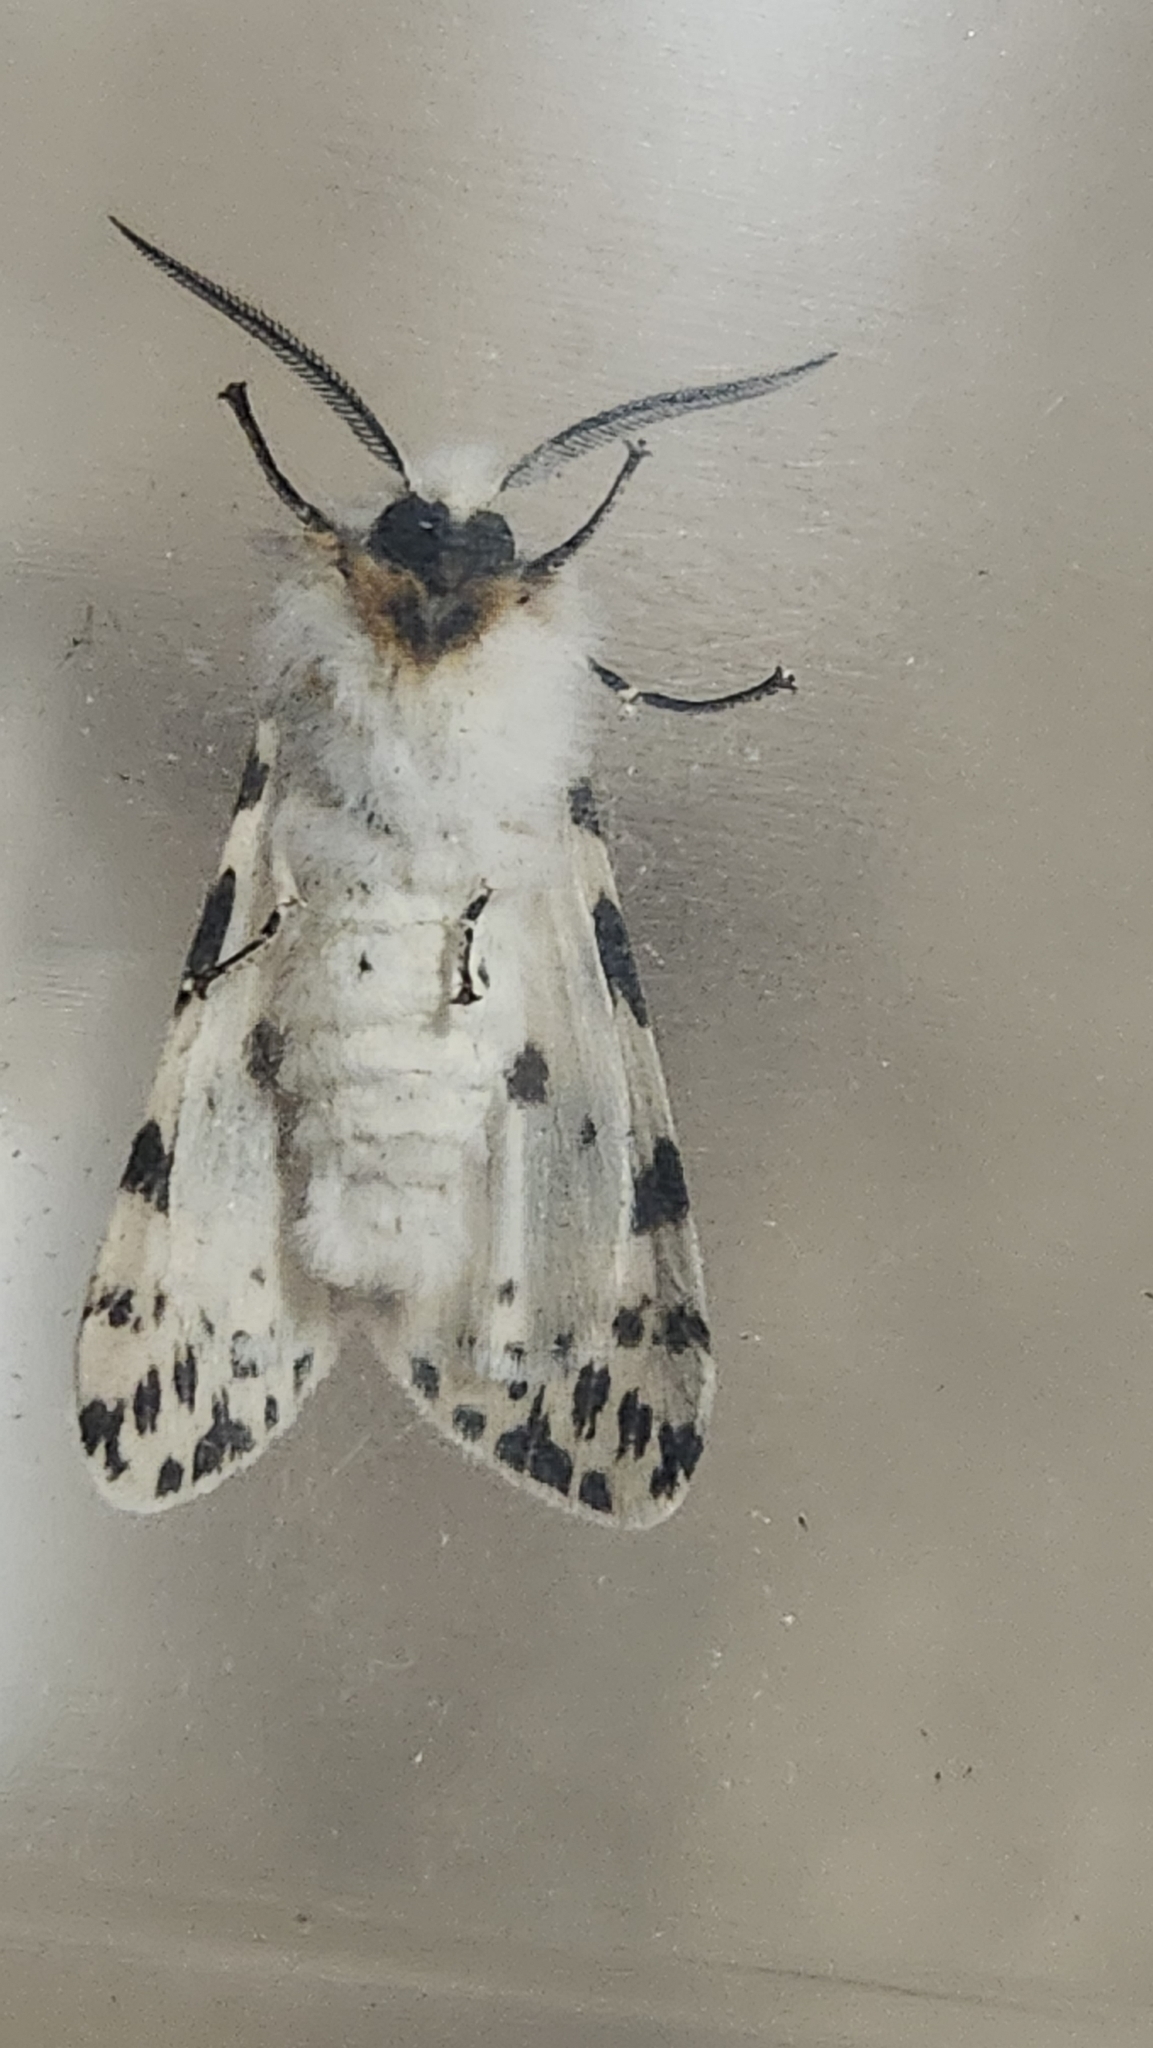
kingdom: Animalia
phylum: Arthropoda
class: Insecta
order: Lepidoptera
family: Erebidae
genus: Hyphantria
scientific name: Hyphantria cunea
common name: American white moth
